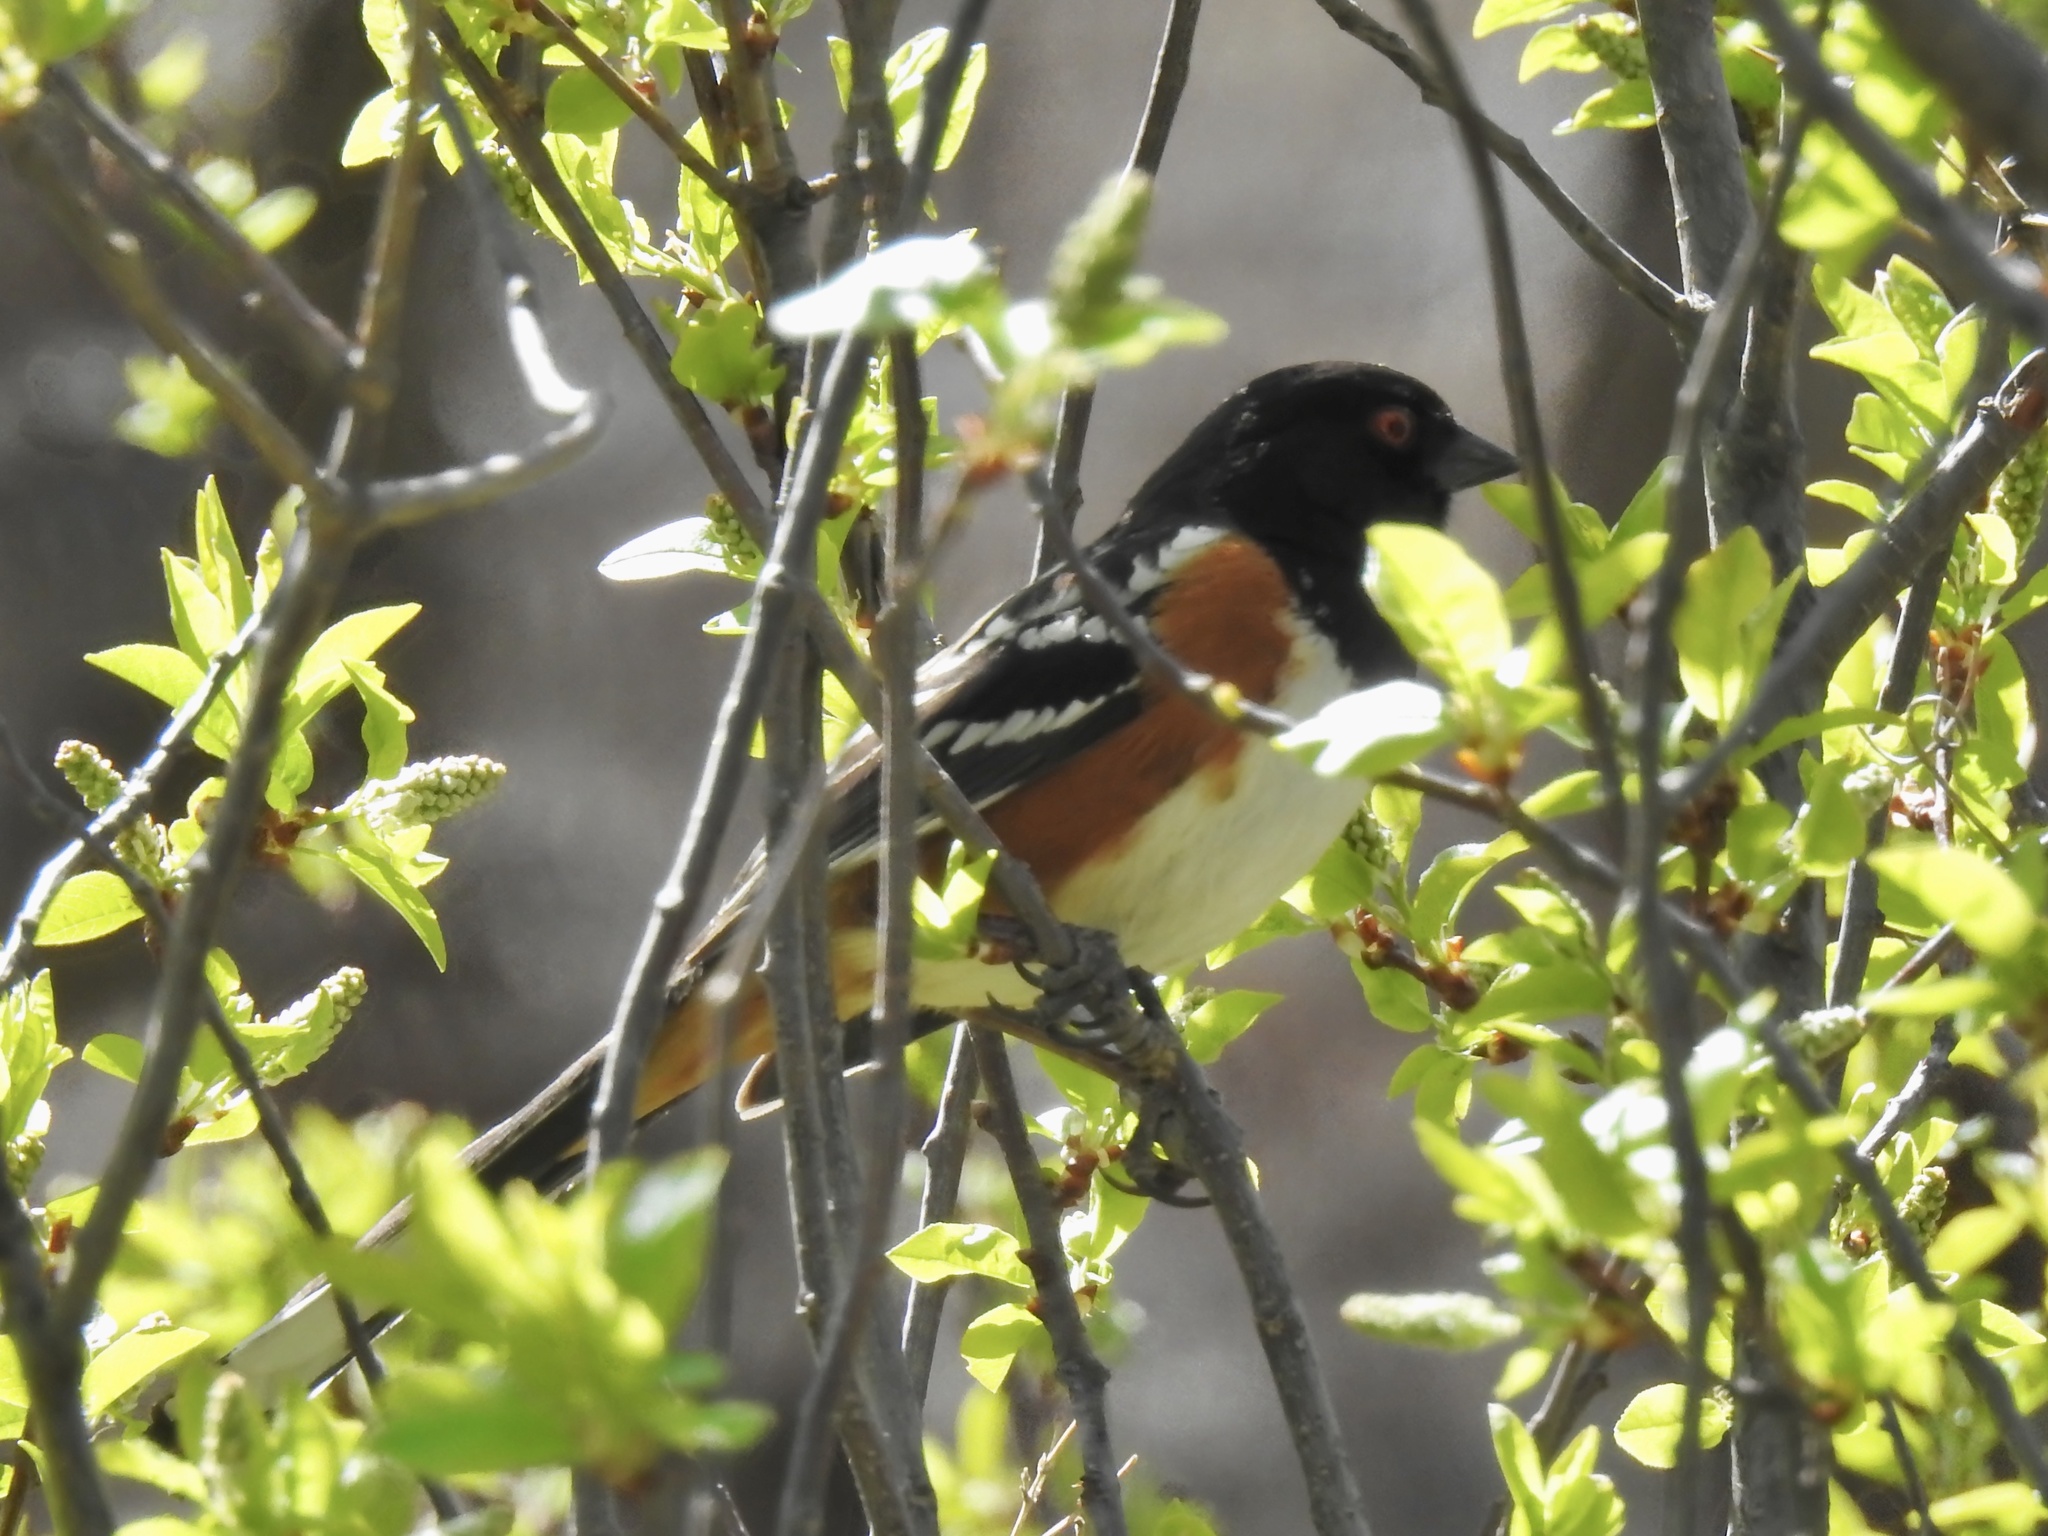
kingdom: Animalia
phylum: Chordata
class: Aves
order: Passeriformes
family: Passerellidae
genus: Pipilo
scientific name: Pipilo maculatus
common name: Spotted towhee
